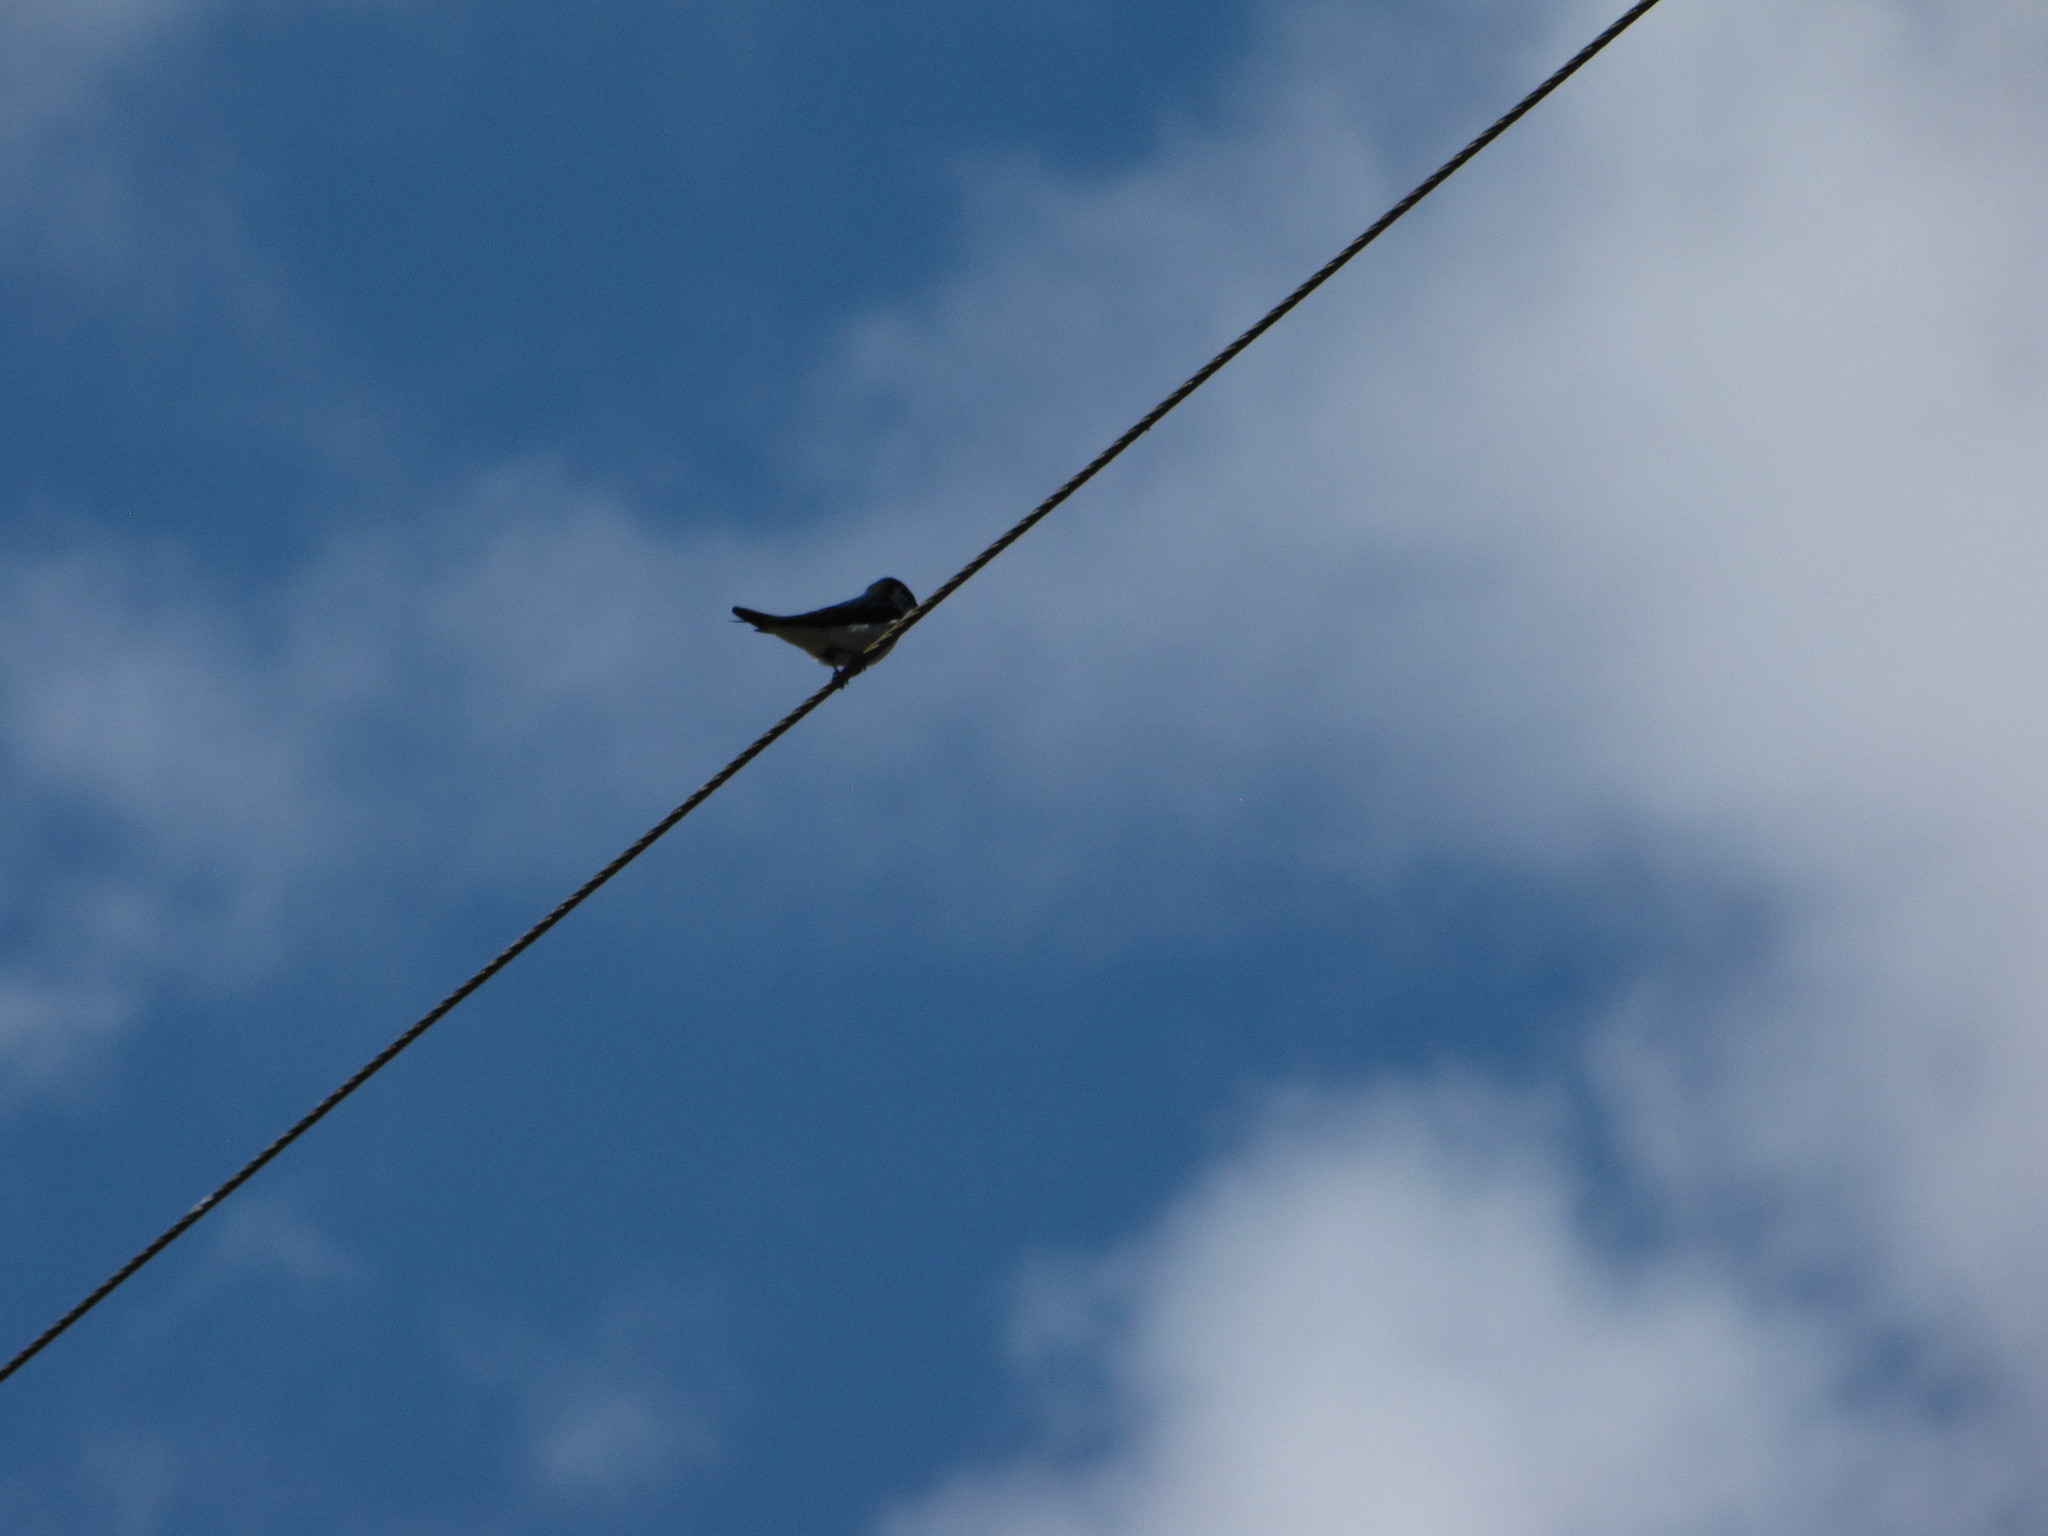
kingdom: Animalia
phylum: Chordata
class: Aves
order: Passeriformes
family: Hirundinidae
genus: Tachycineta
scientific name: Tachycineta thalassina
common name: Violet-green swallow
